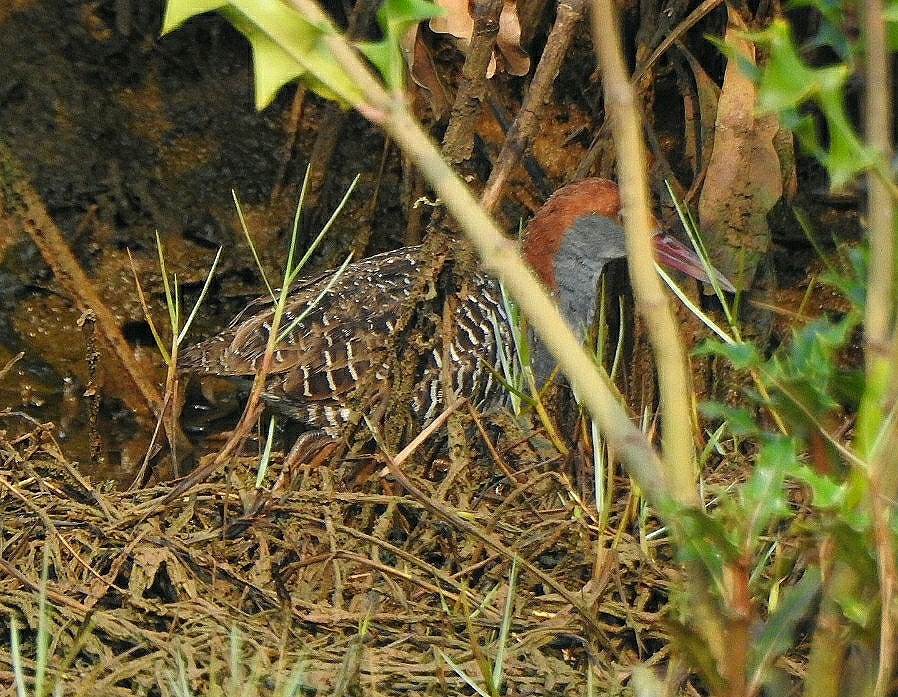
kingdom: Animalia
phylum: Chordata
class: Aves
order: Gruiformes
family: Rallidae
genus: Gallirallus
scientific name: Gallirallus striatus
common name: Slaty-breasted rail
